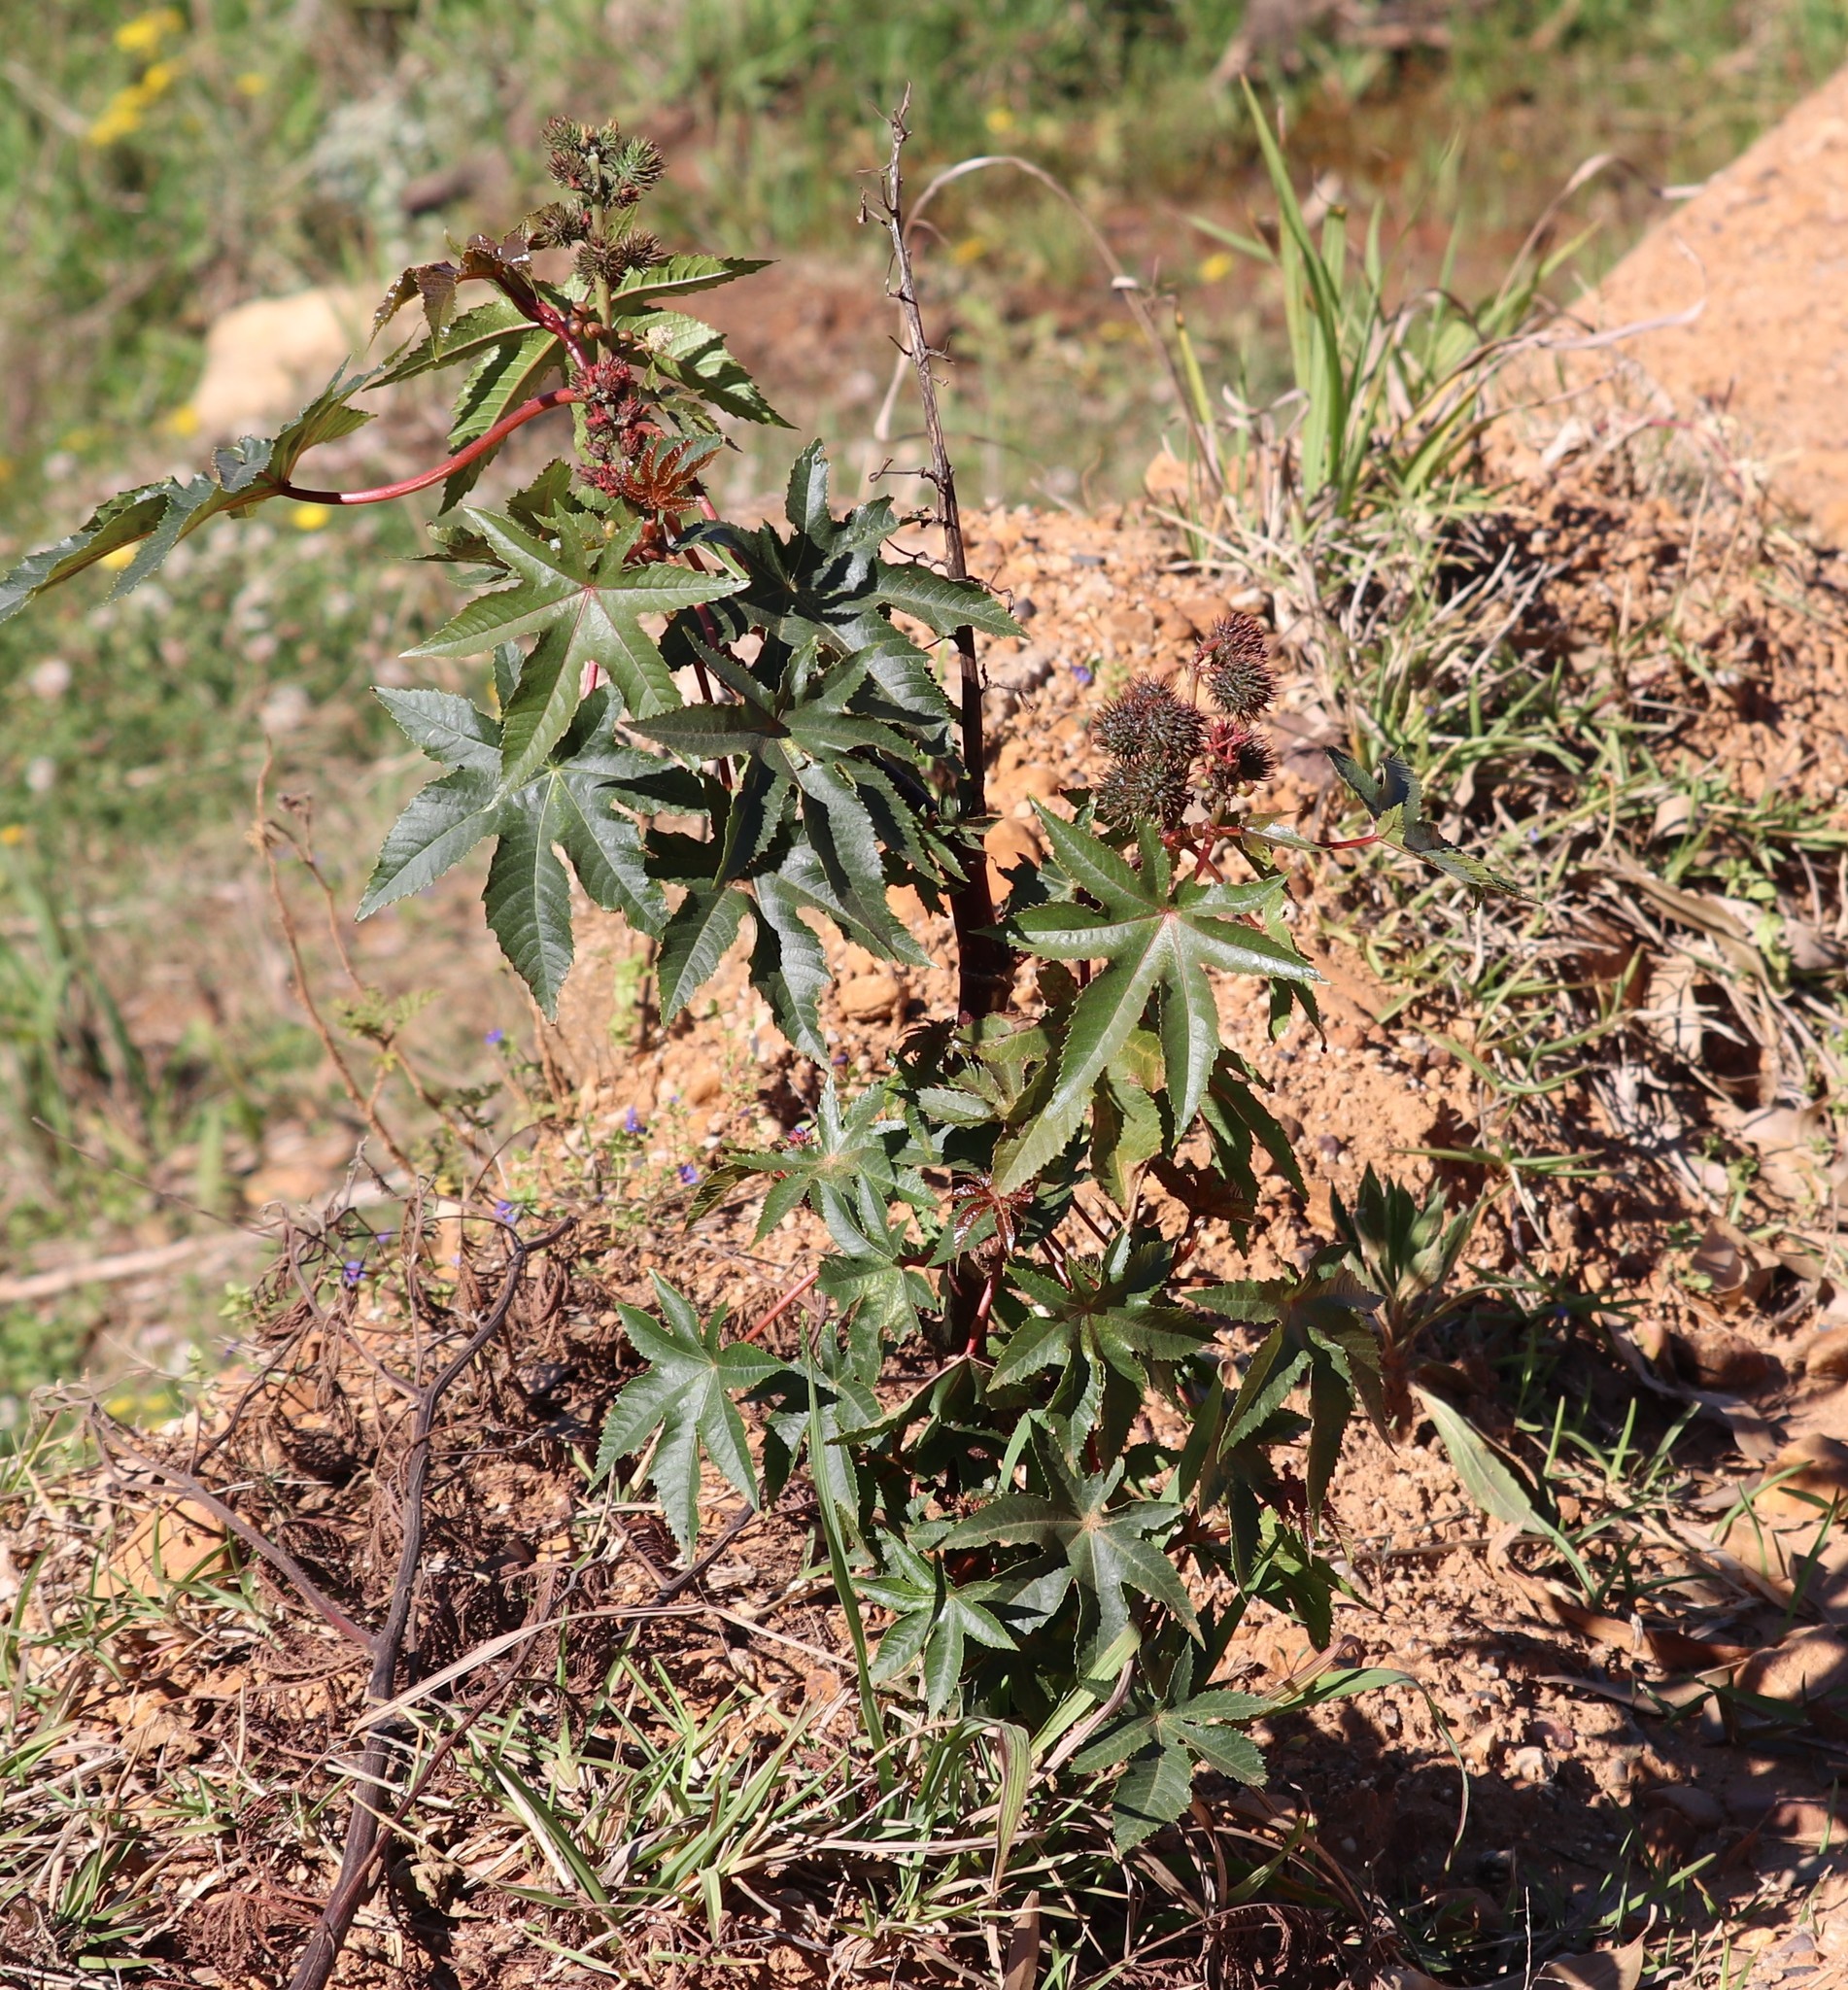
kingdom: Plantae
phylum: Tracheophyta
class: Magnoliopsida
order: Malpighiales
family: Euphorbiaceae
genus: Ricinus
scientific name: Ricinus communis
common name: Castor-oil-plant
